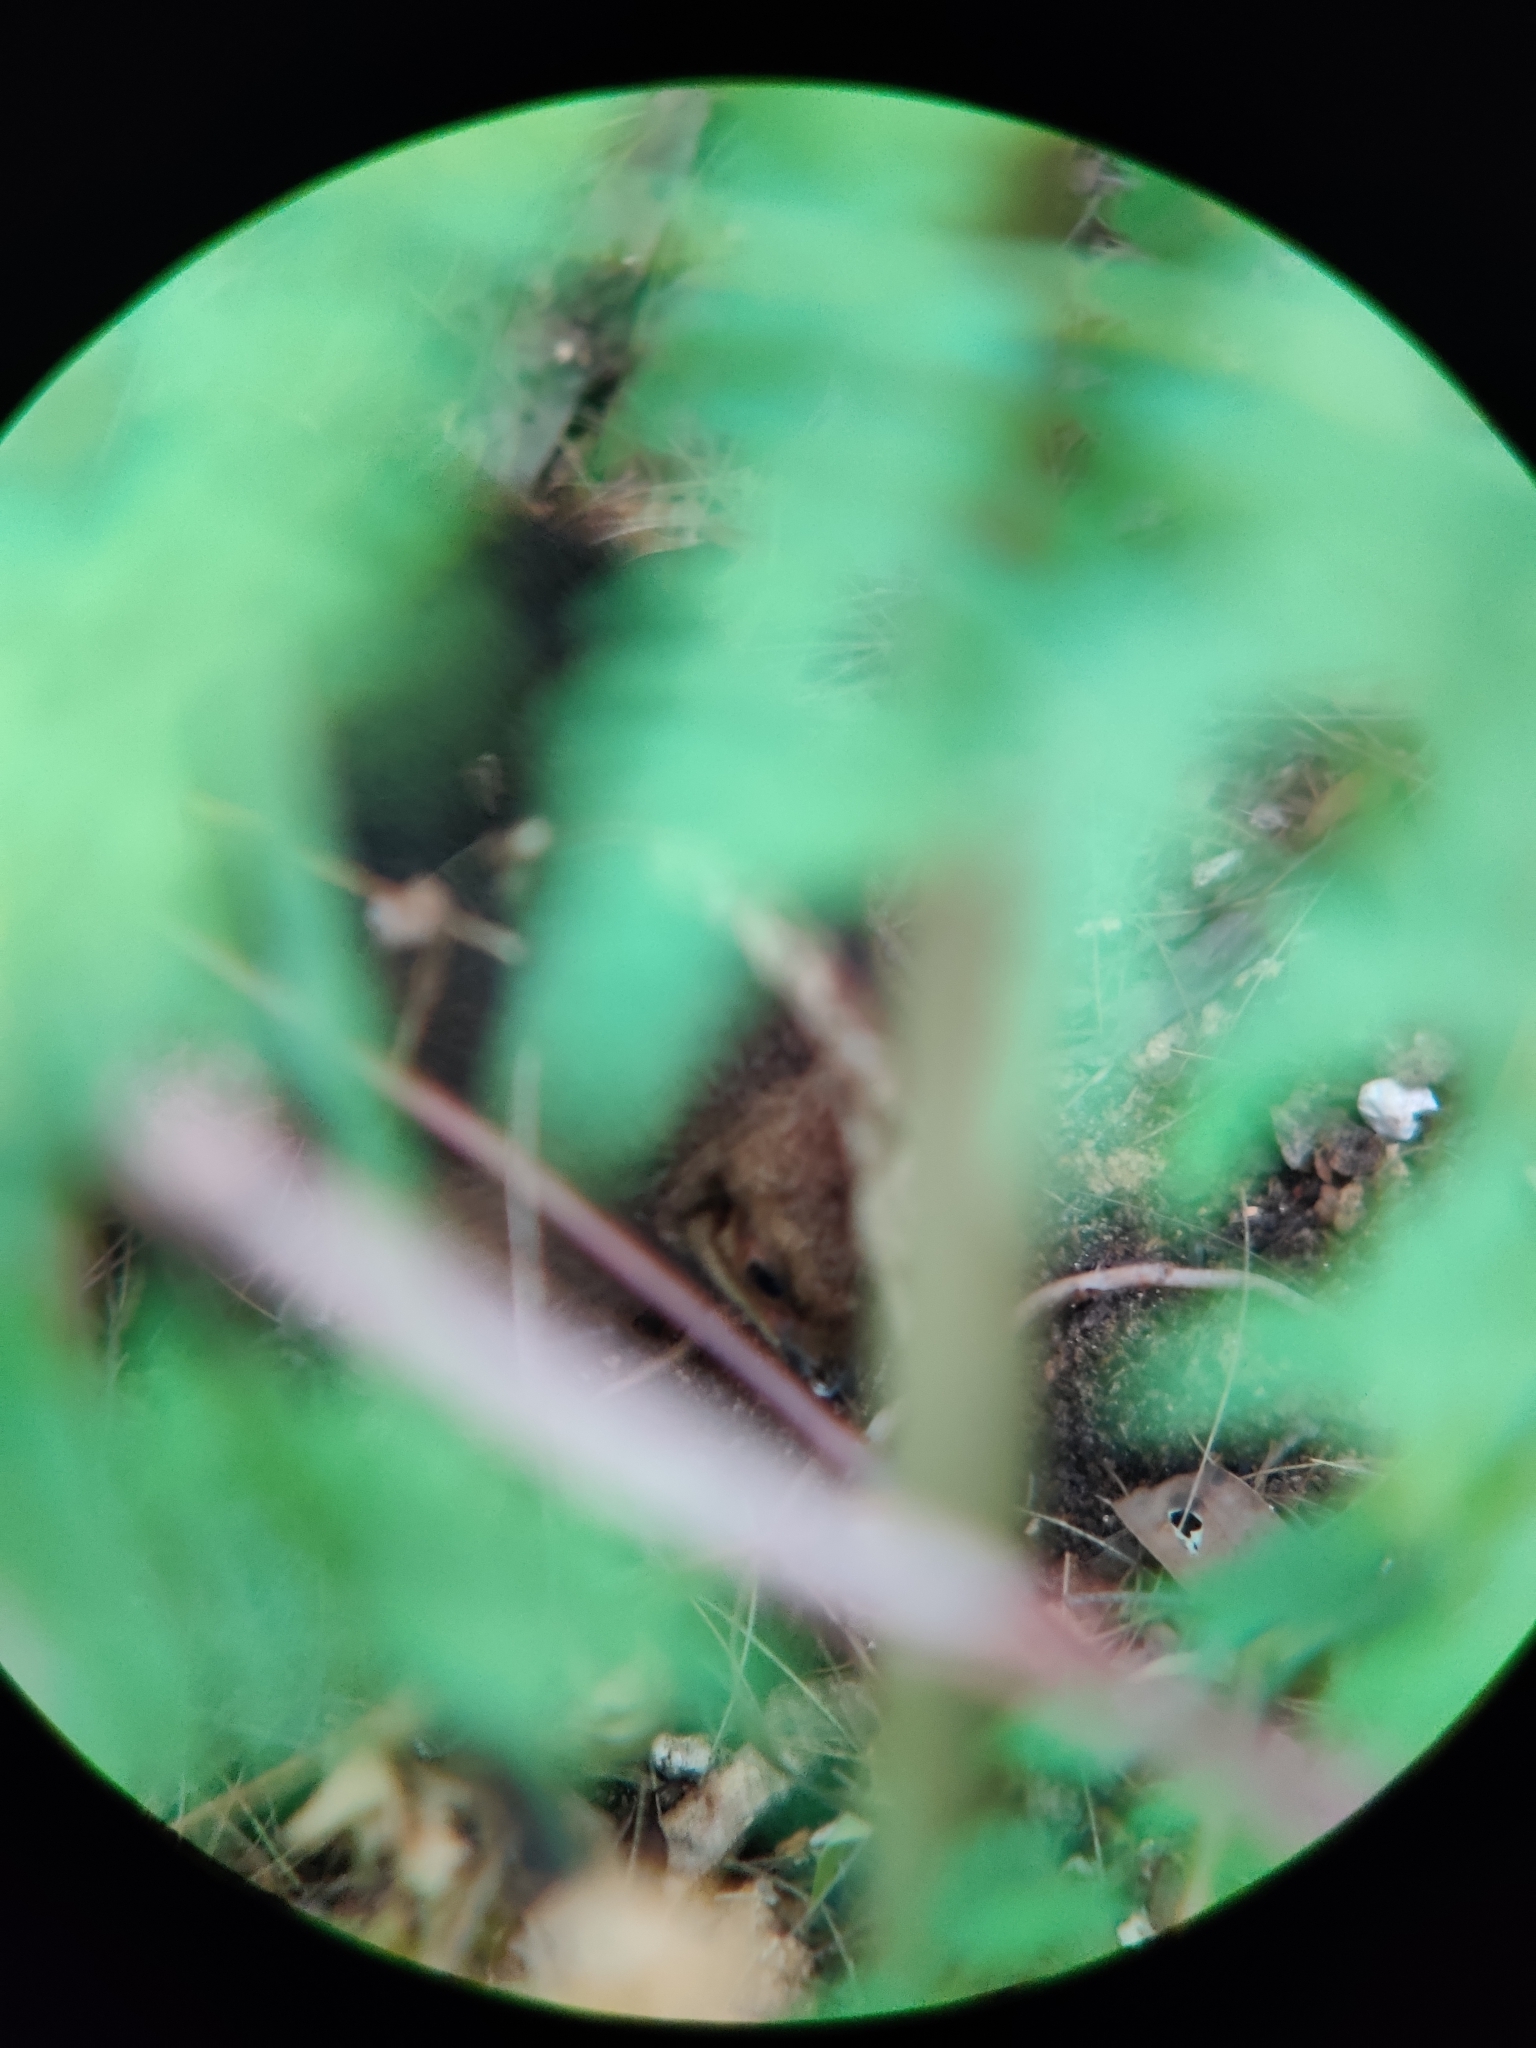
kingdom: Animalia
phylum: Chordata
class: Aves
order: Galliformes
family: Megapodiidae
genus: Alectura
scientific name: Alectura lathami
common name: Australian brushturkey
